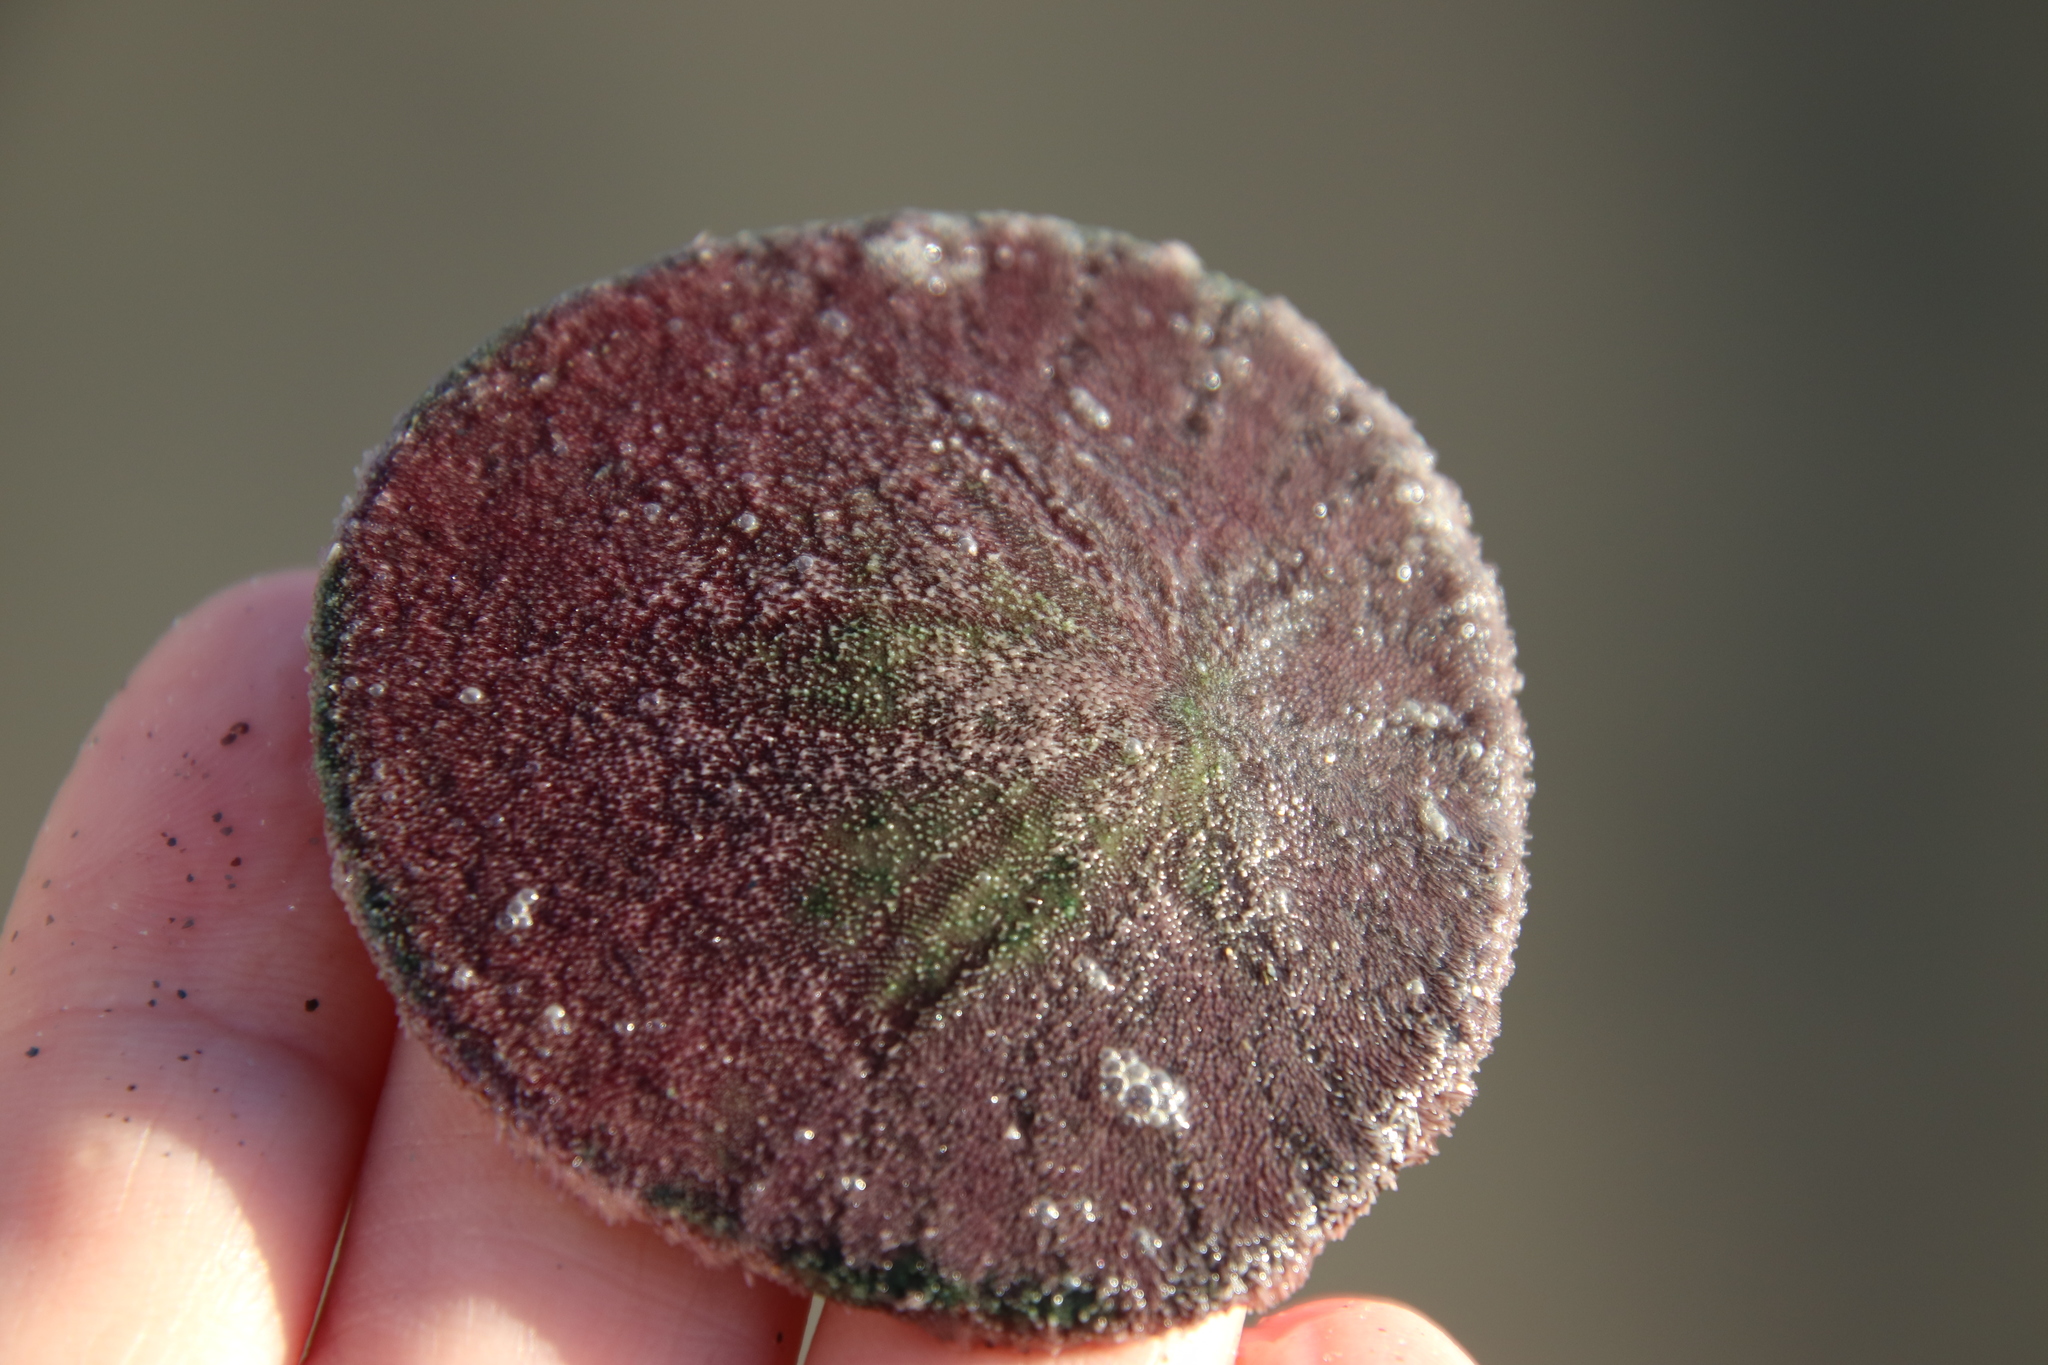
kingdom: Animalia
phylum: Echinodermata
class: Echinoidea
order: Echinolampadacea
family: Dendrasteridae
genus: Dendraster
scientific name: Dendraster excentricus
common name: Eccentric sand dollar sea urchin
